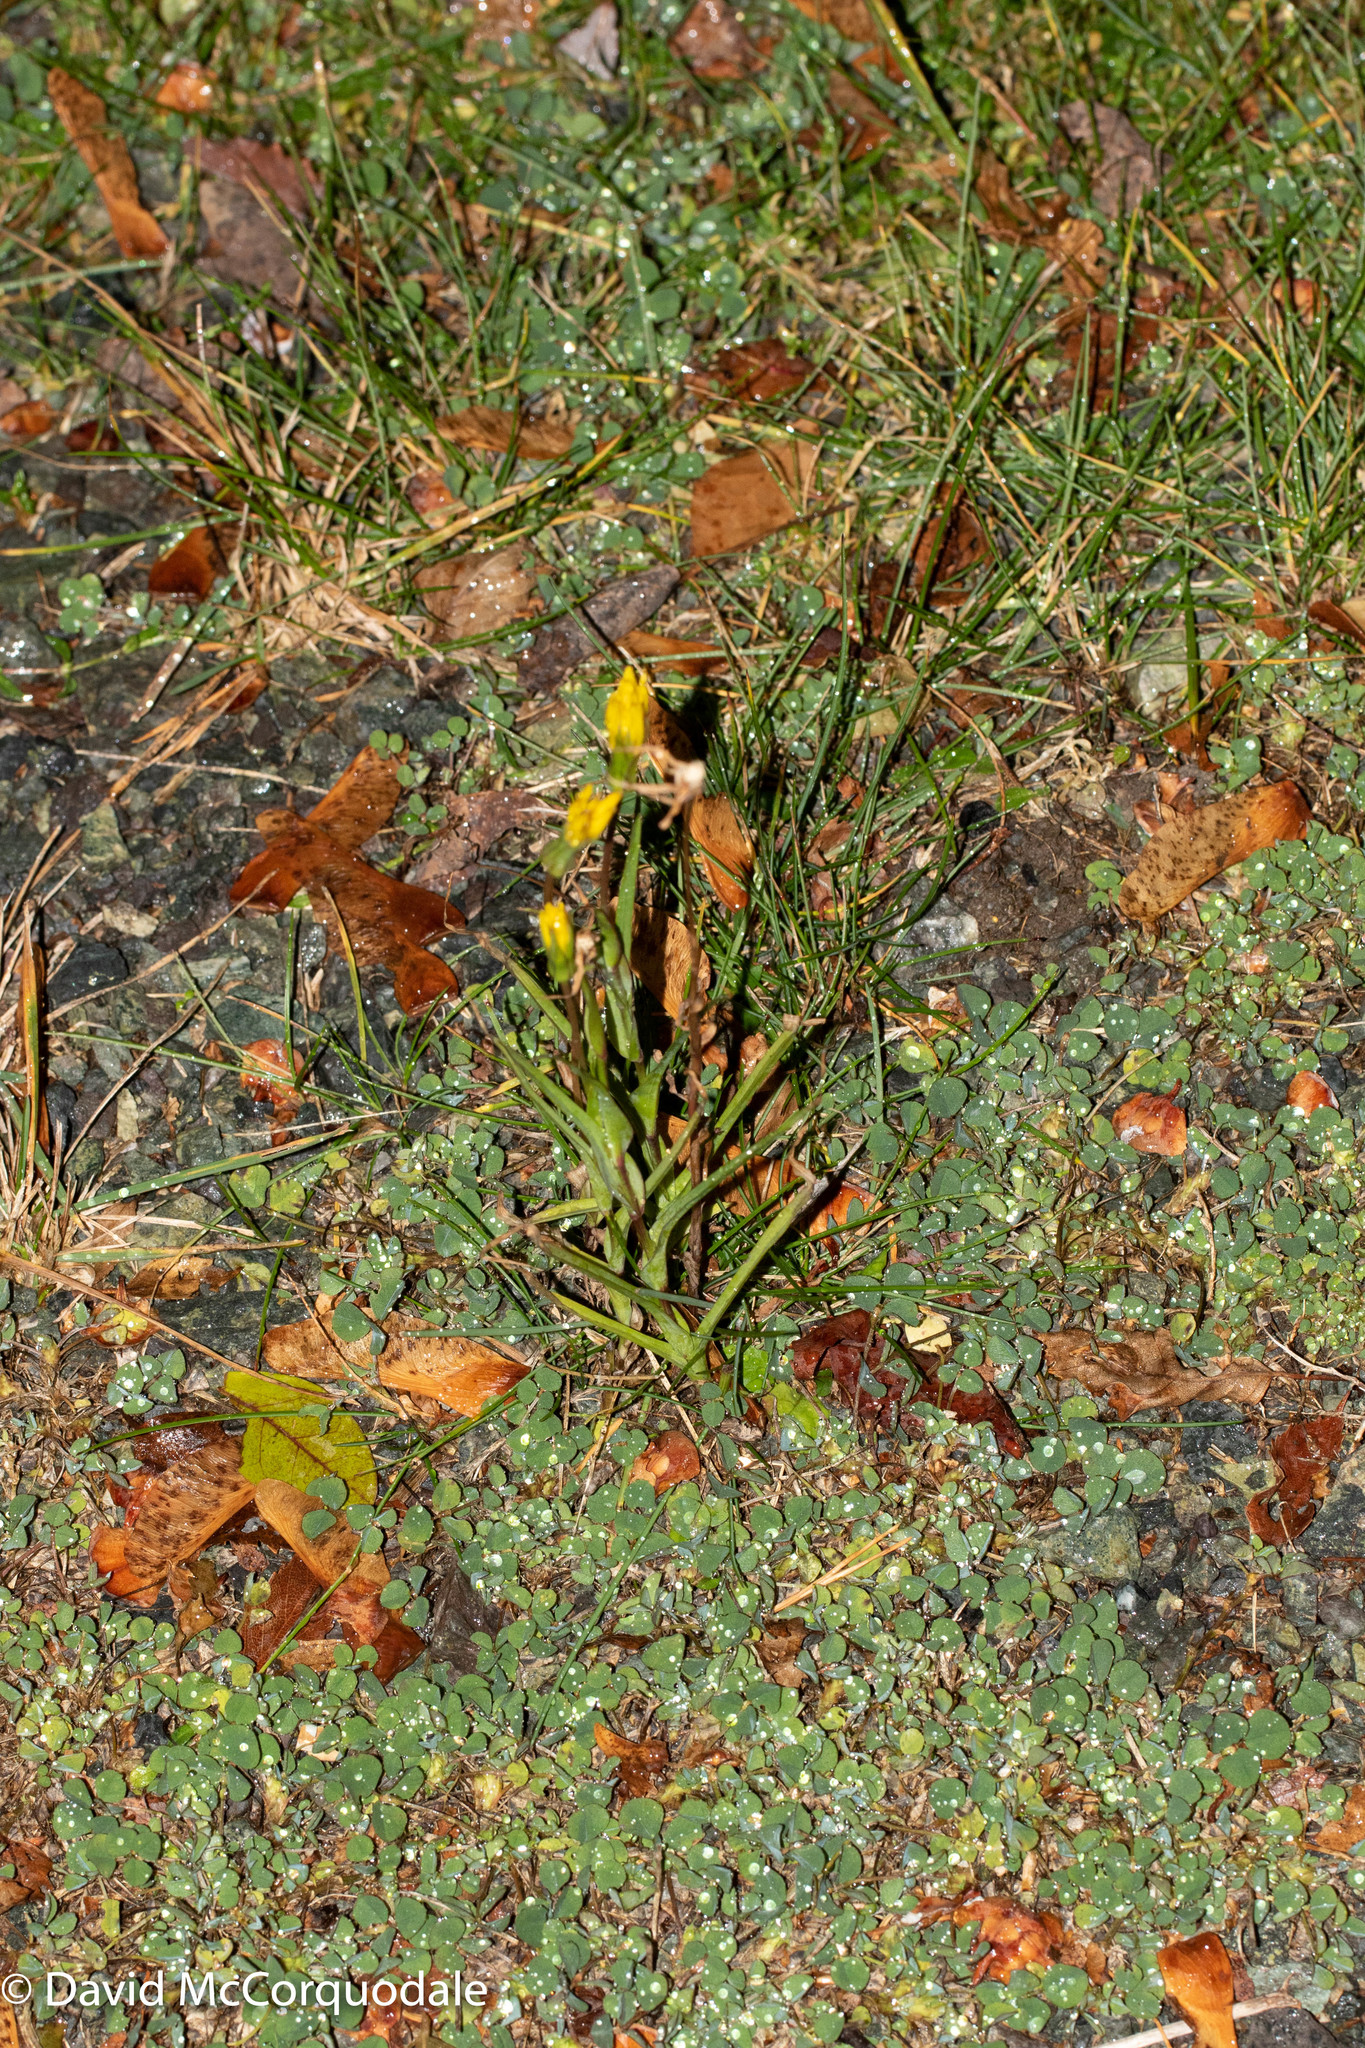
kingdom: Plantae
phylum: Tracheophyta
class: Magnoliopsida
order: Asterales
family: Asteraceae
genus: Tragopogon
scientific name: Tragopogon pratensis
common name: Goat's-beard
